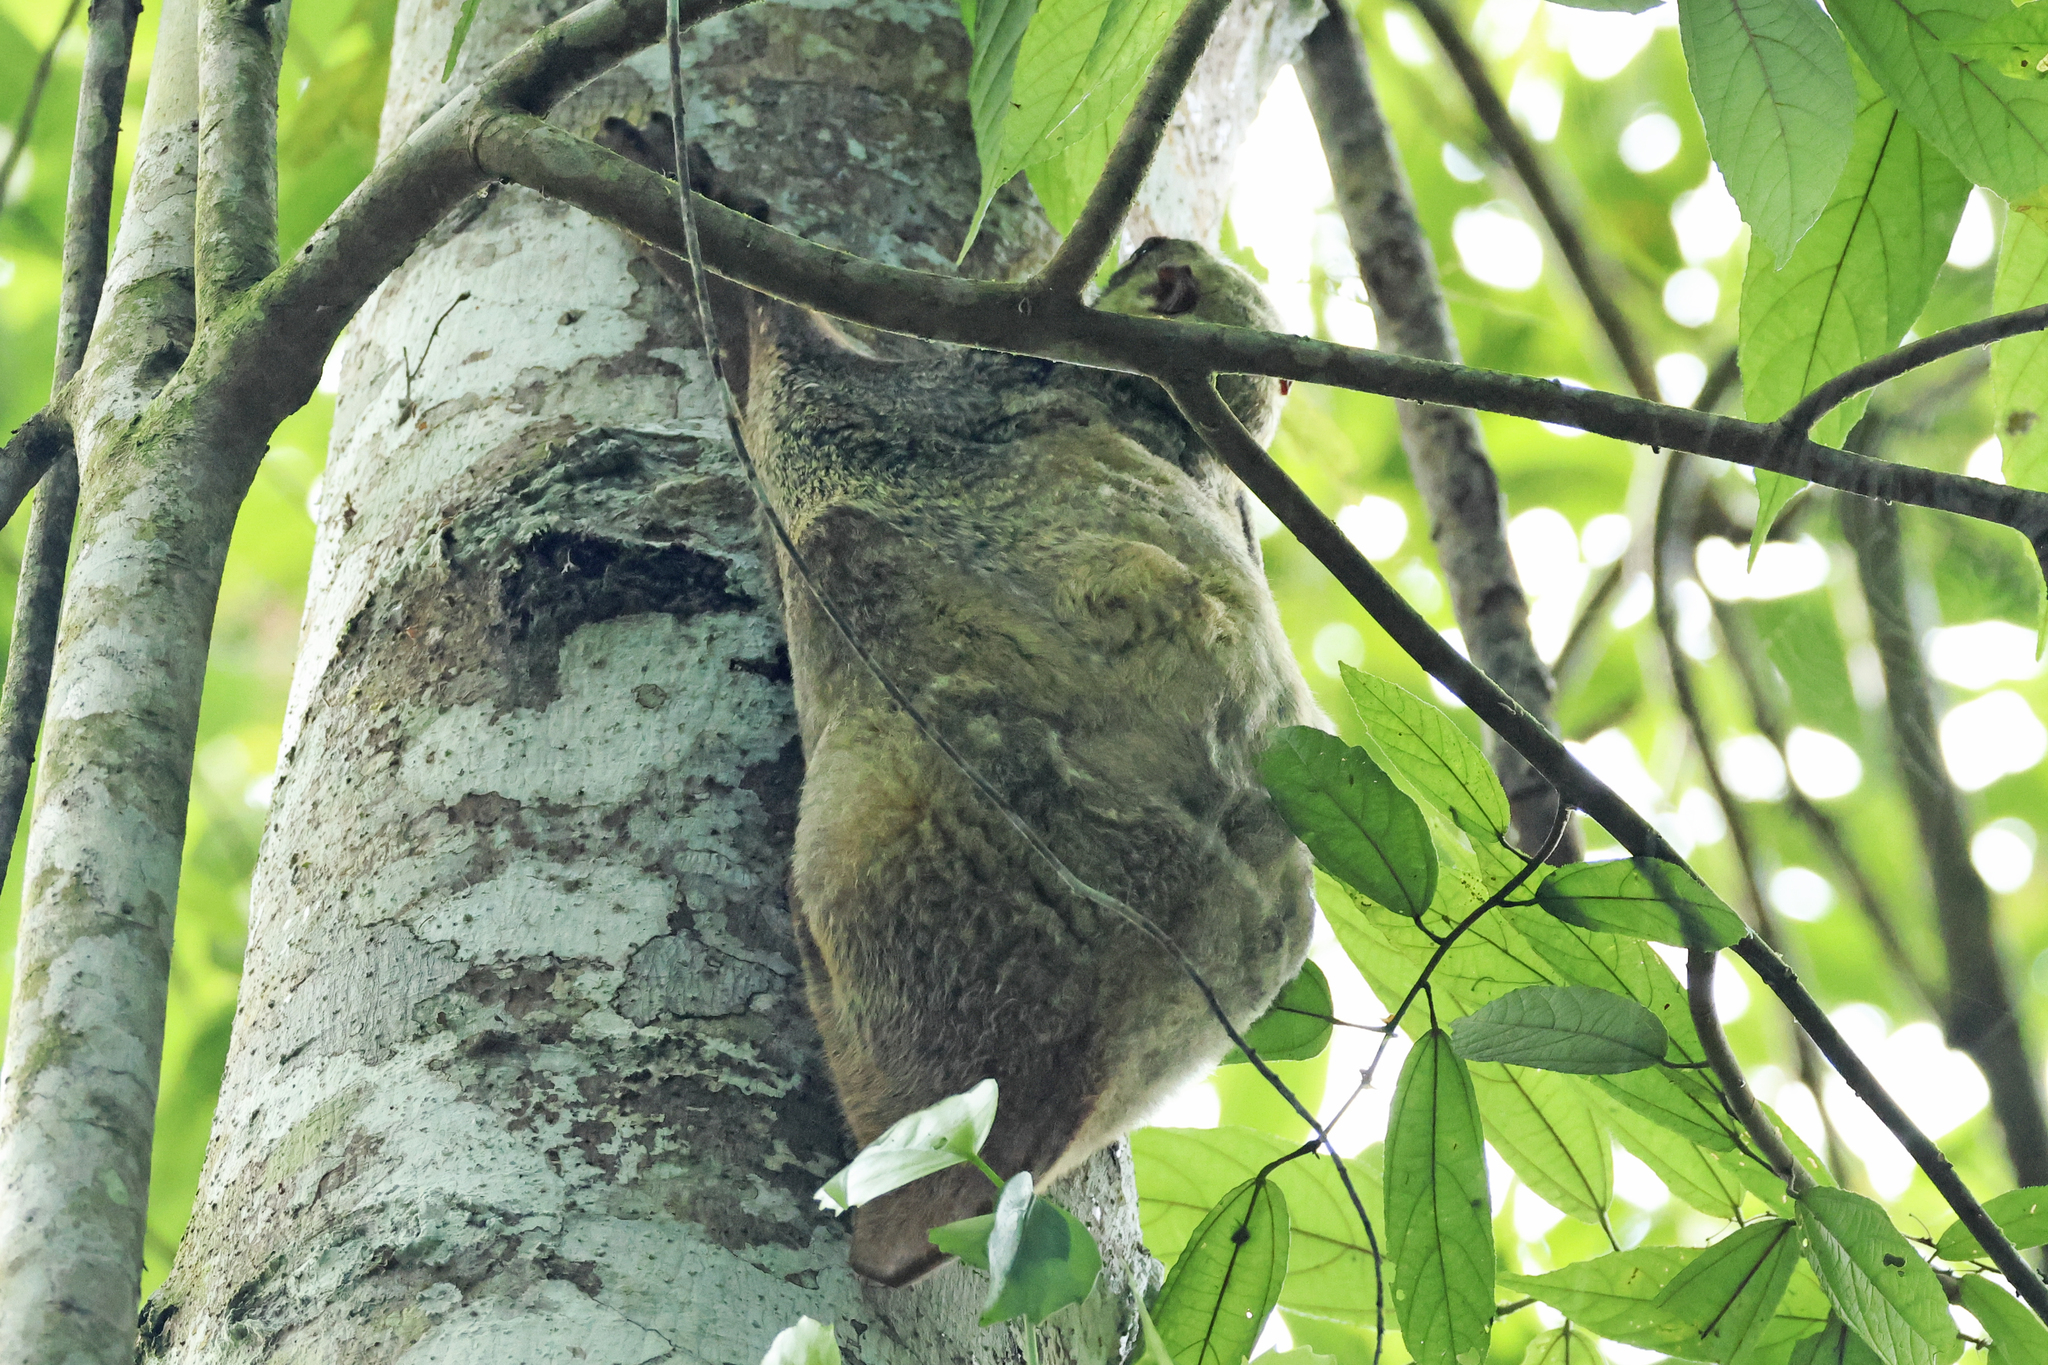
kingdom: Animalia
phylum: Chordata
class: Mammalia
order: Dermoptera
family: Cynocephalidae
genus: Galeopterus
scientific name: Galeopterus variegatus
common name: Sunda flying lemur
